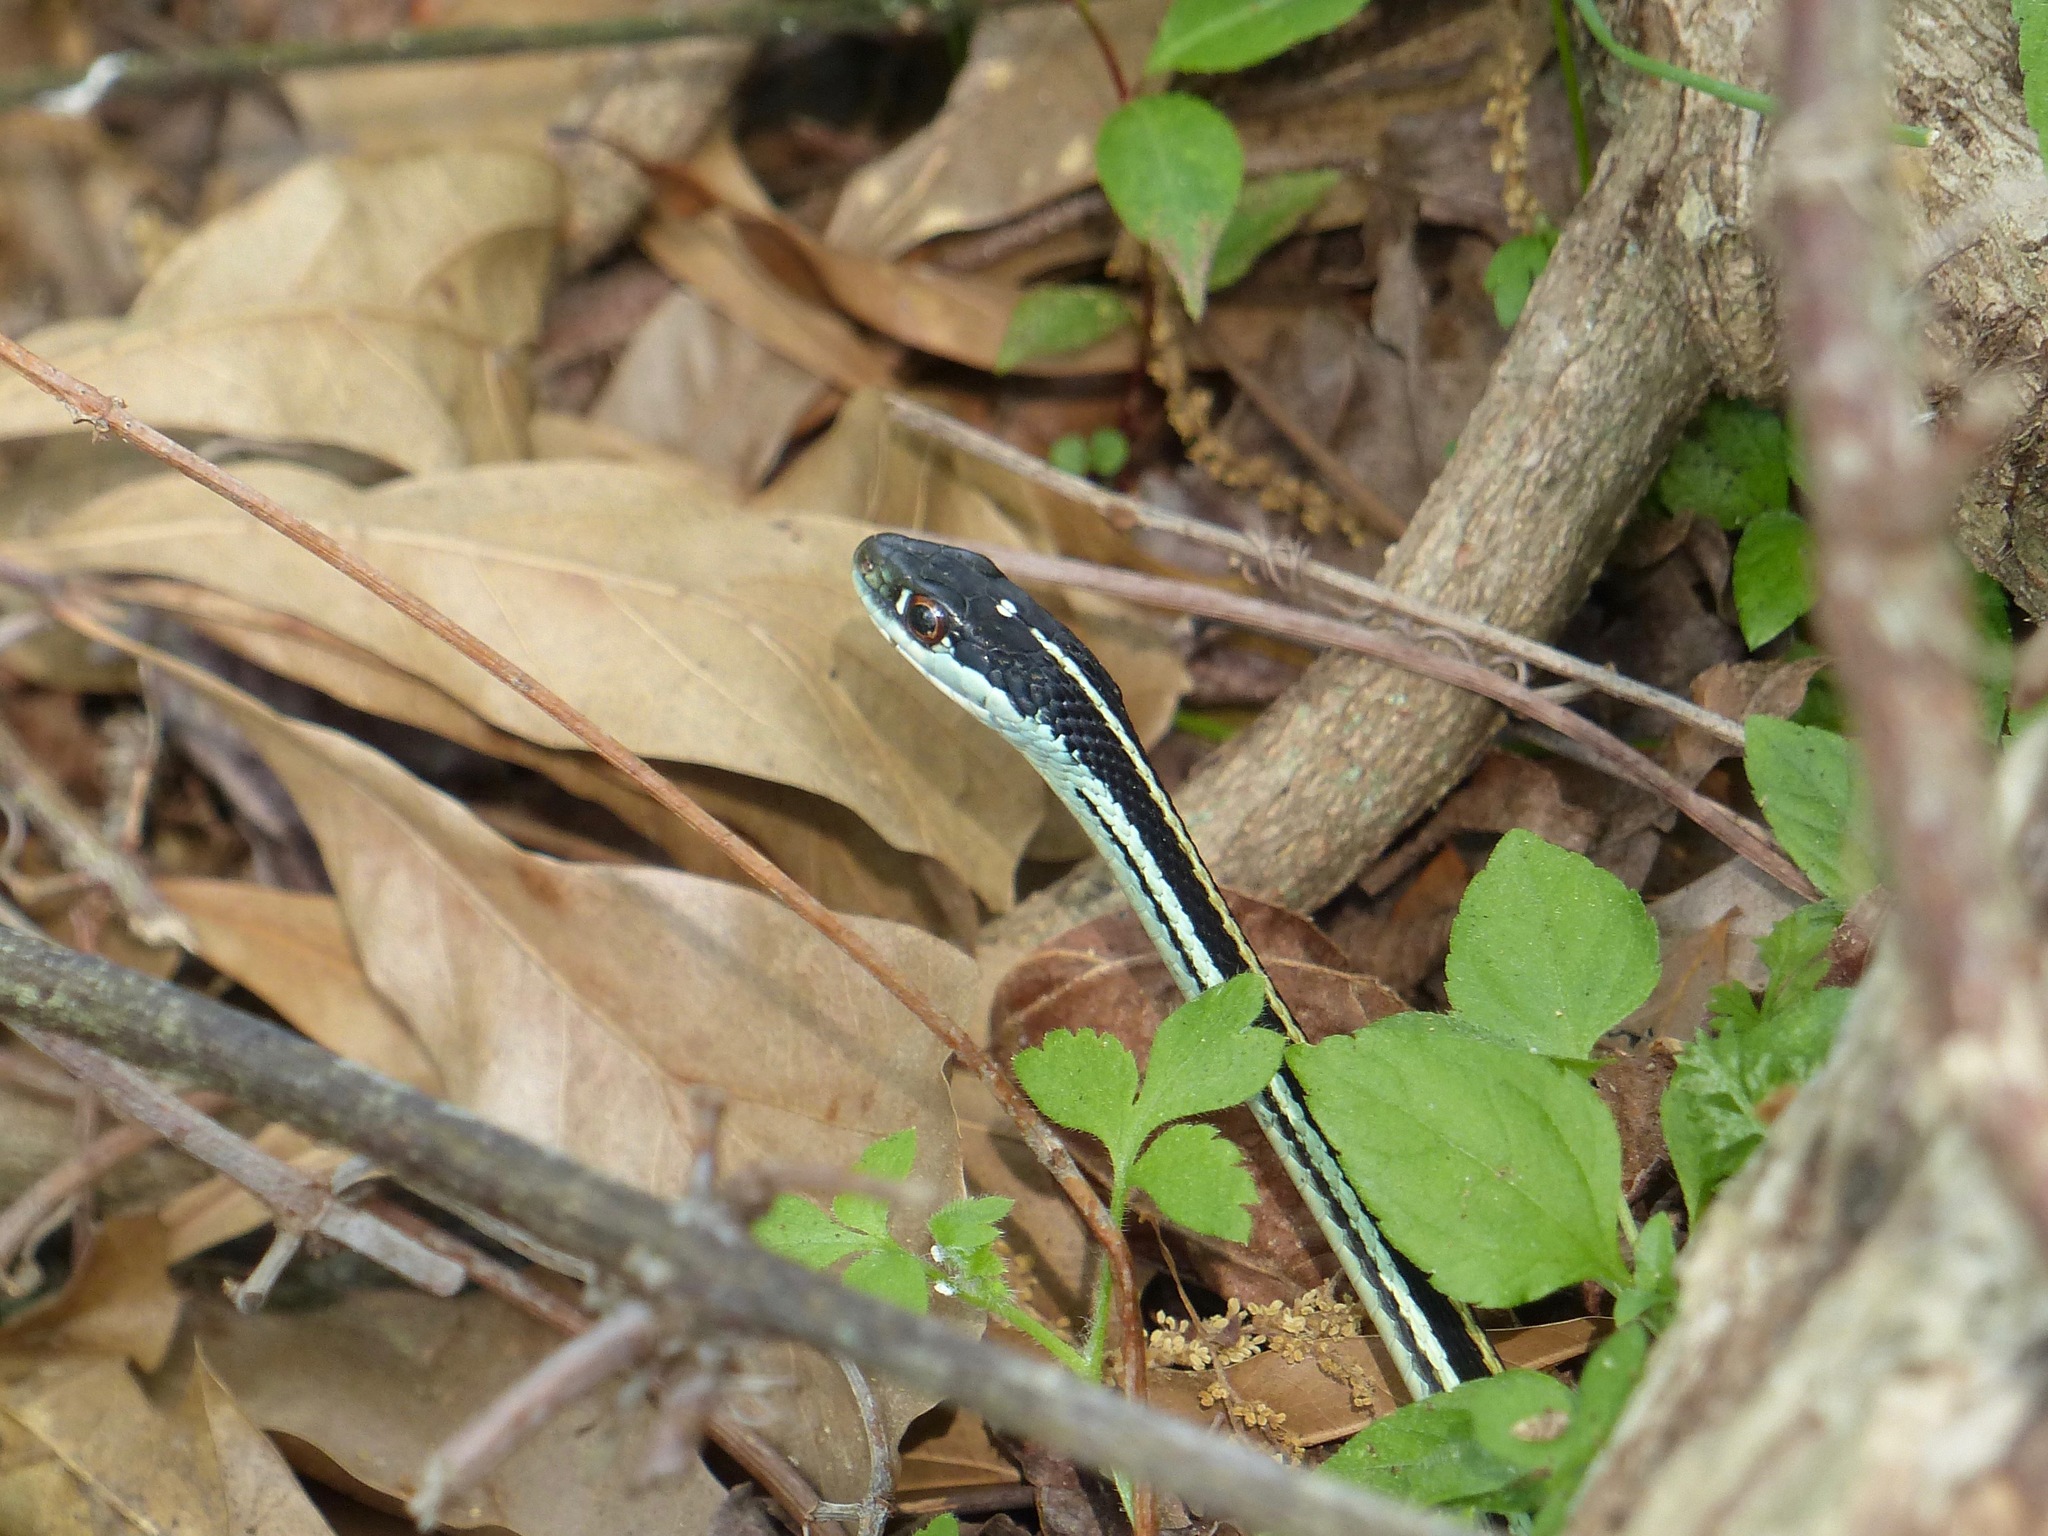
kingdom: Animalia
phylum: Chordata
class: Squamata
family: Colubridae
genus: Thamnophis
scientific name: Thamnophis proximus
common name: Western ribbon snake
